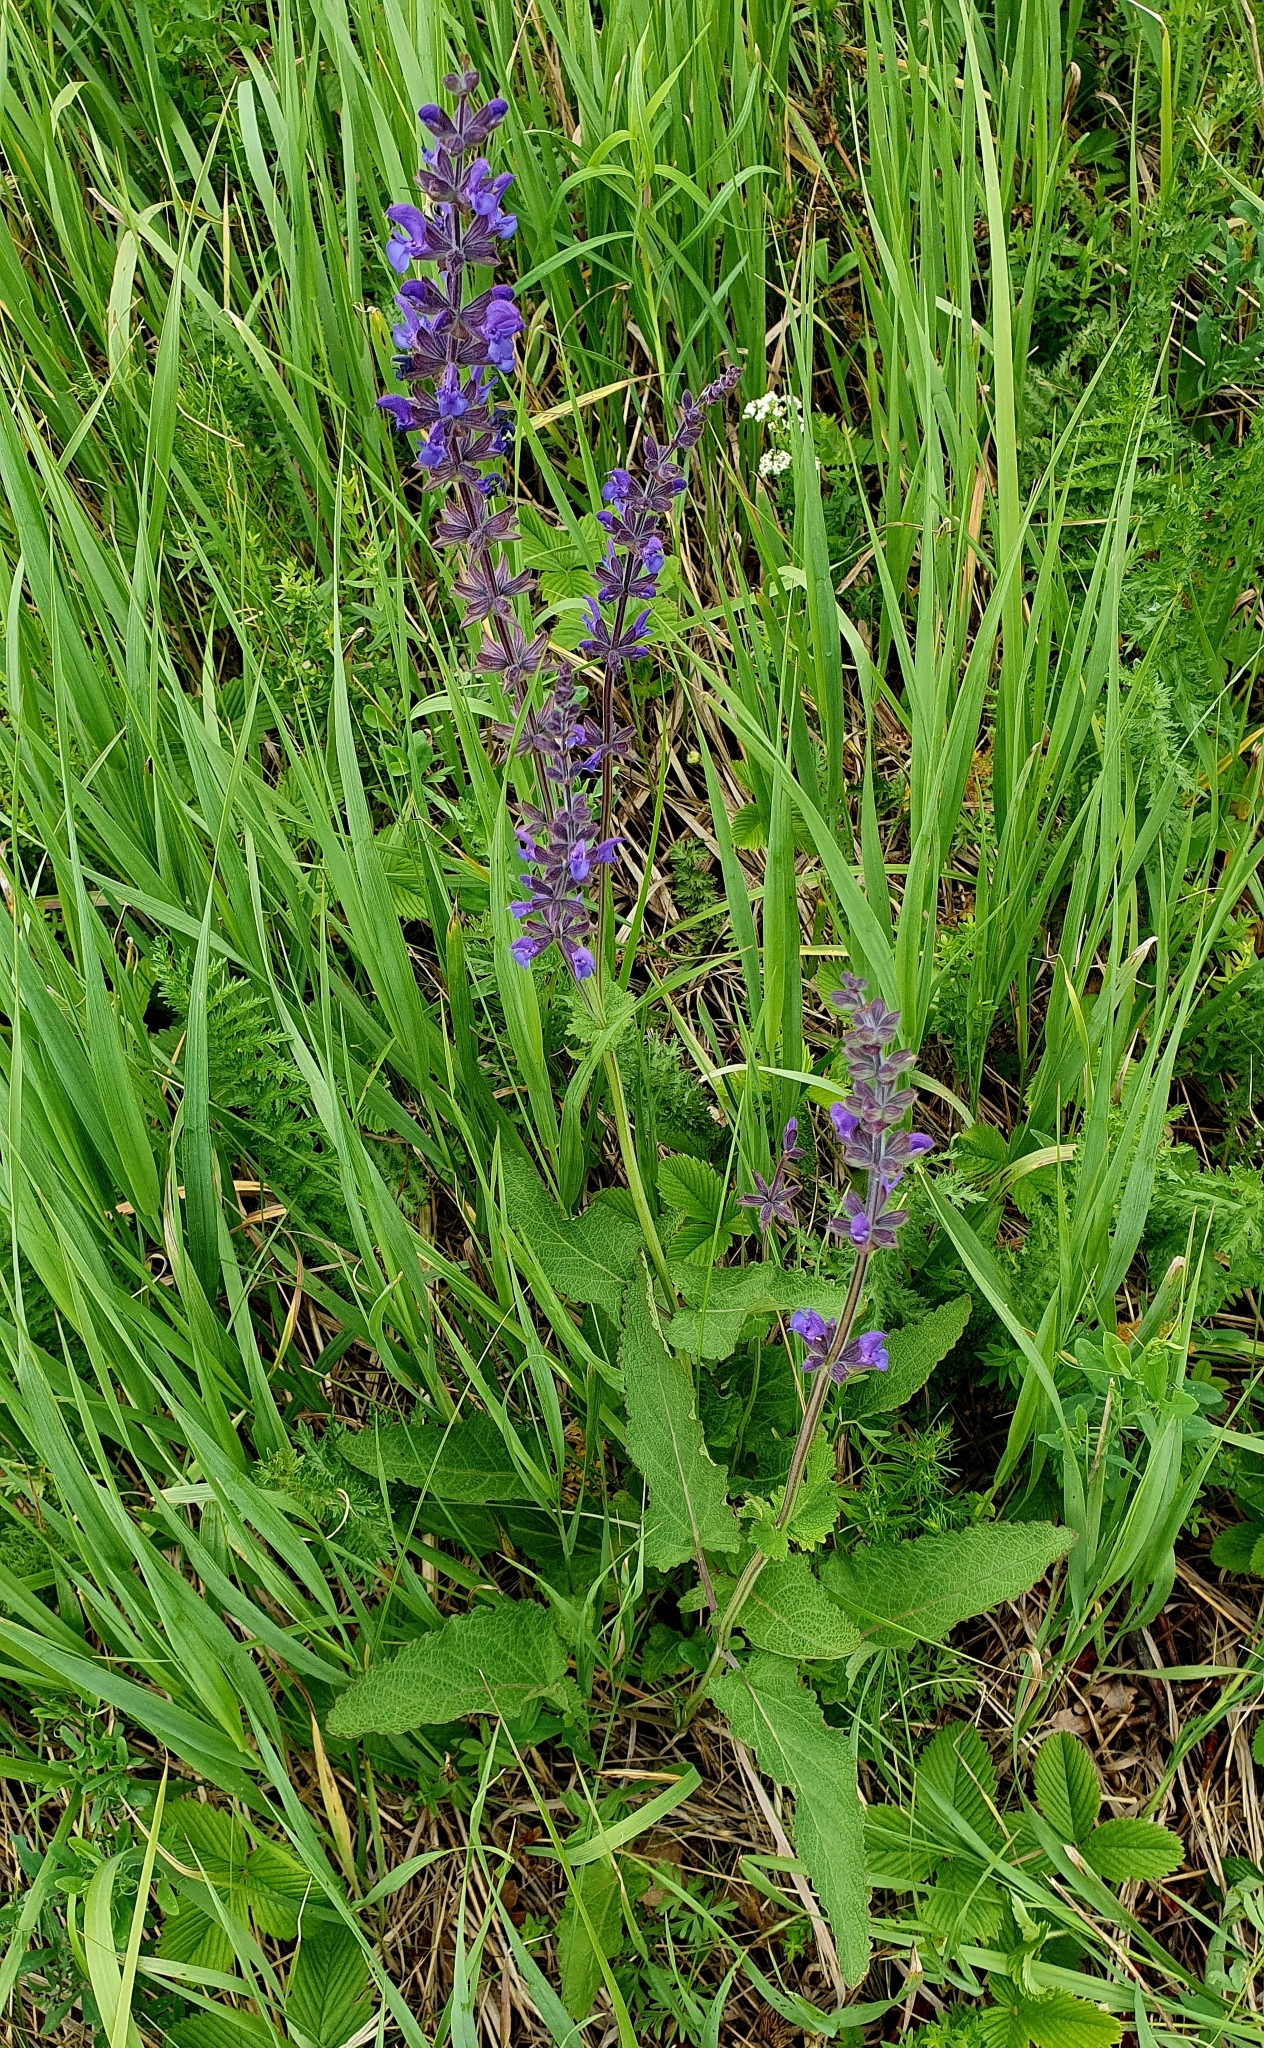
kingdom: Plantae
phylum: Tracheophyta
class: Magnoliopsida
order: Lamiales
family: Lamiaceae
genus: Salvia
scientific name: Salvia dumetorum
